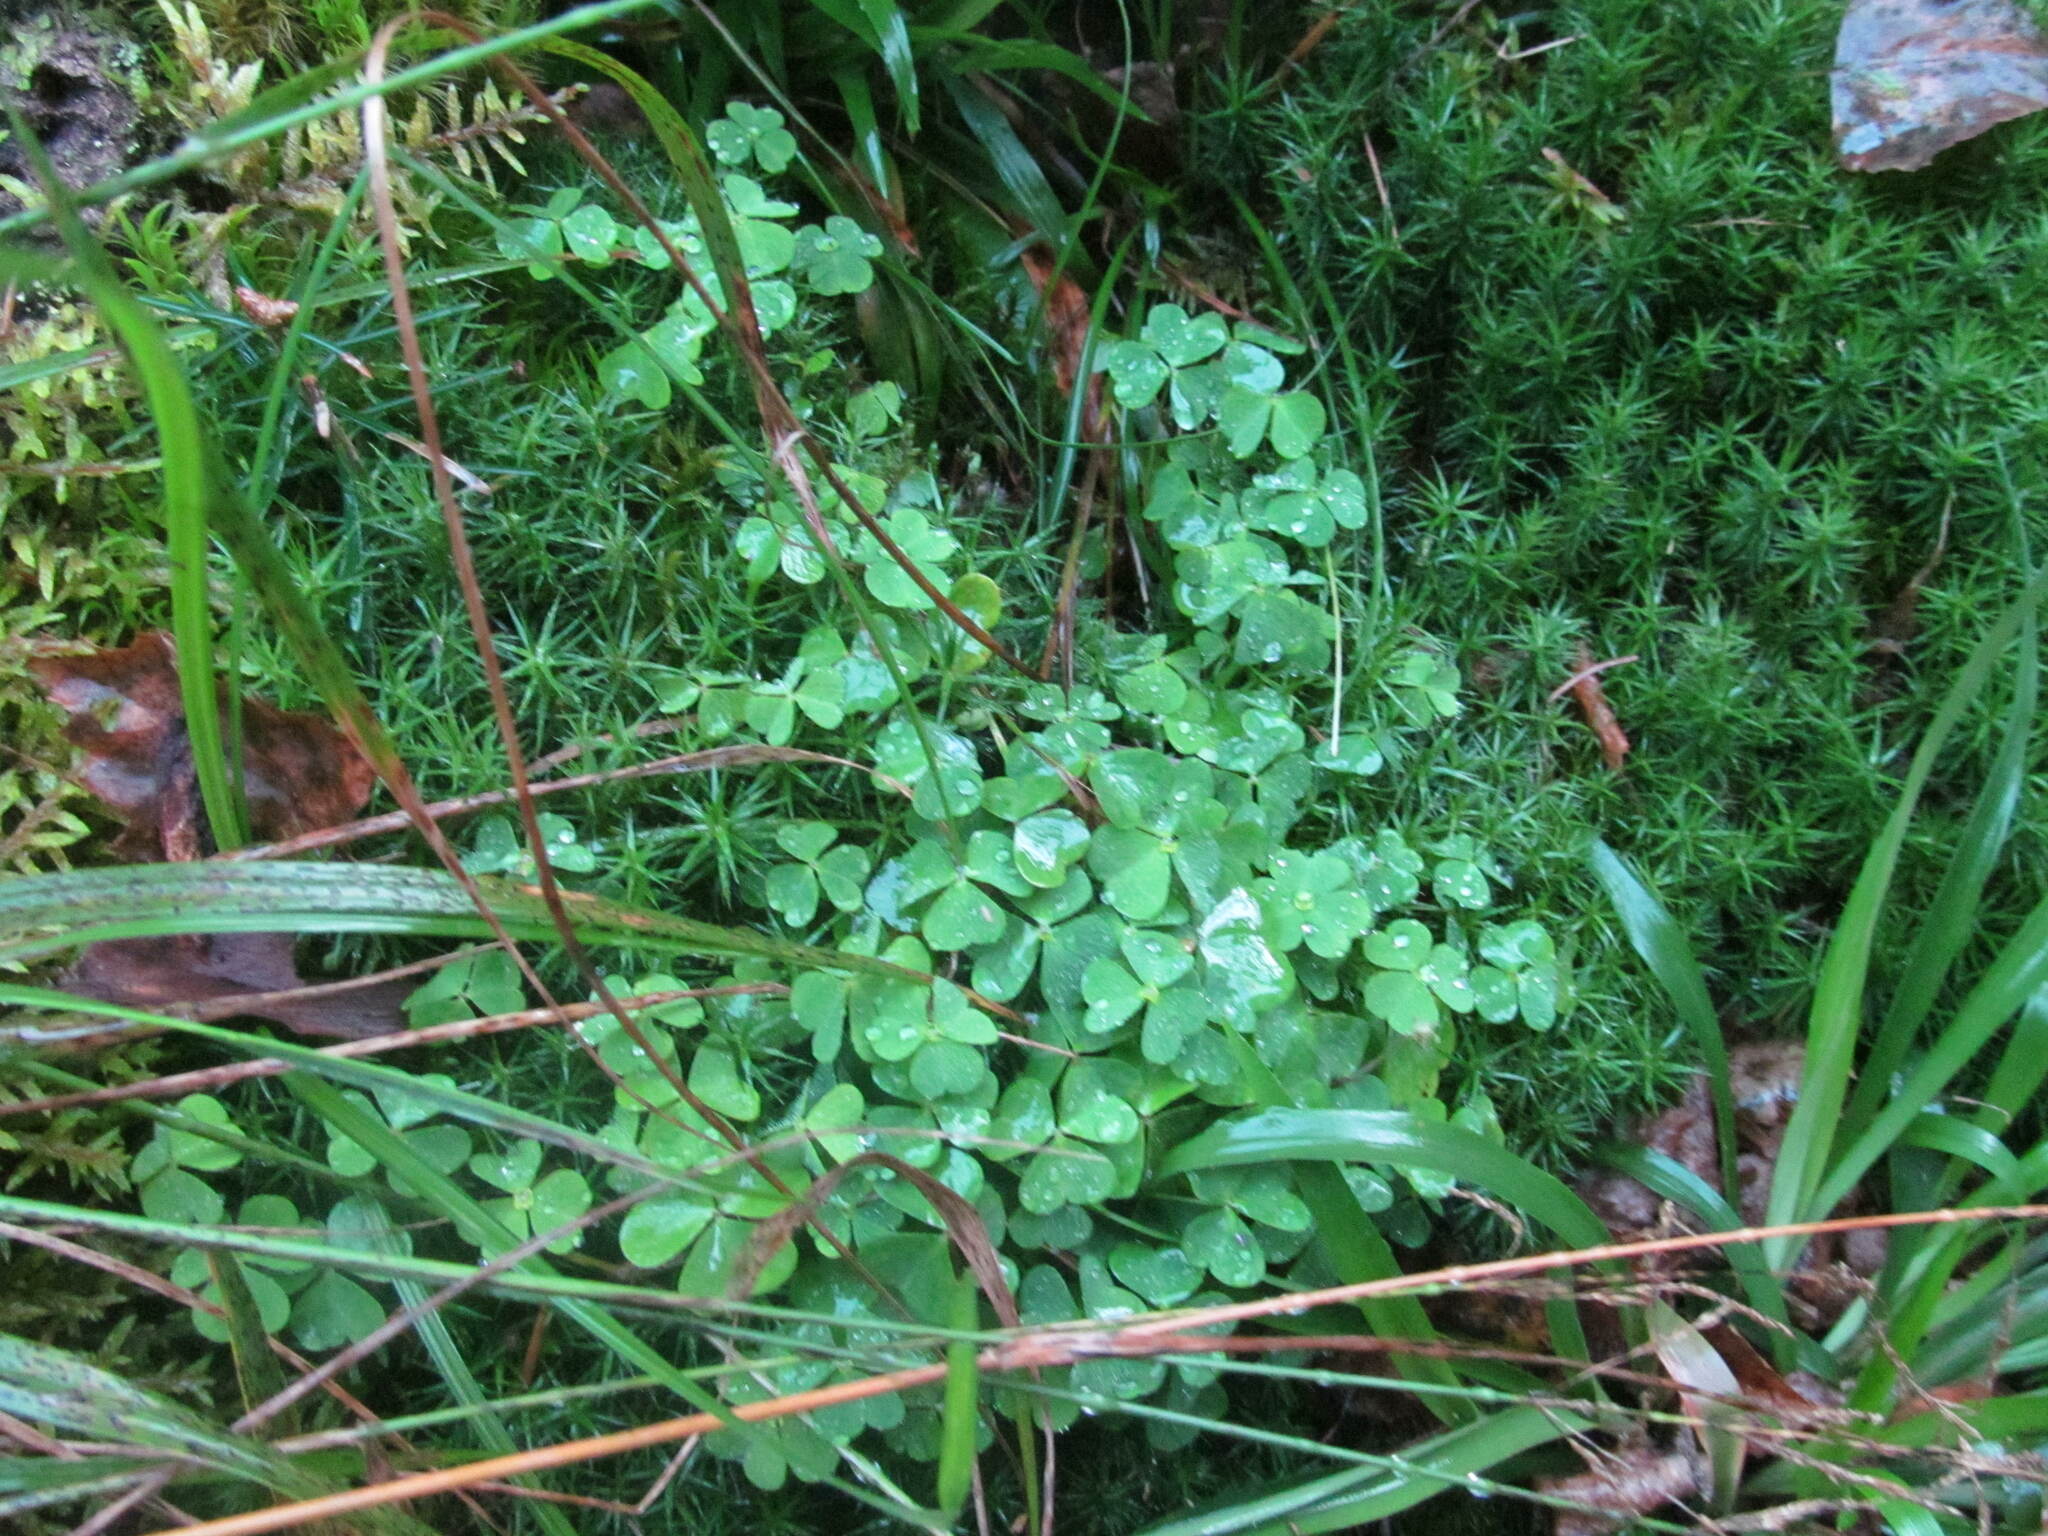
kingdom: Plantae
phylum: Tracheophyta
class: Magnoliopsida
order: Oxalidales
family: Oxalidaceae
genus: Oxalis
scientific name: Oxalis acetosella
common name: Wood-sorrel
